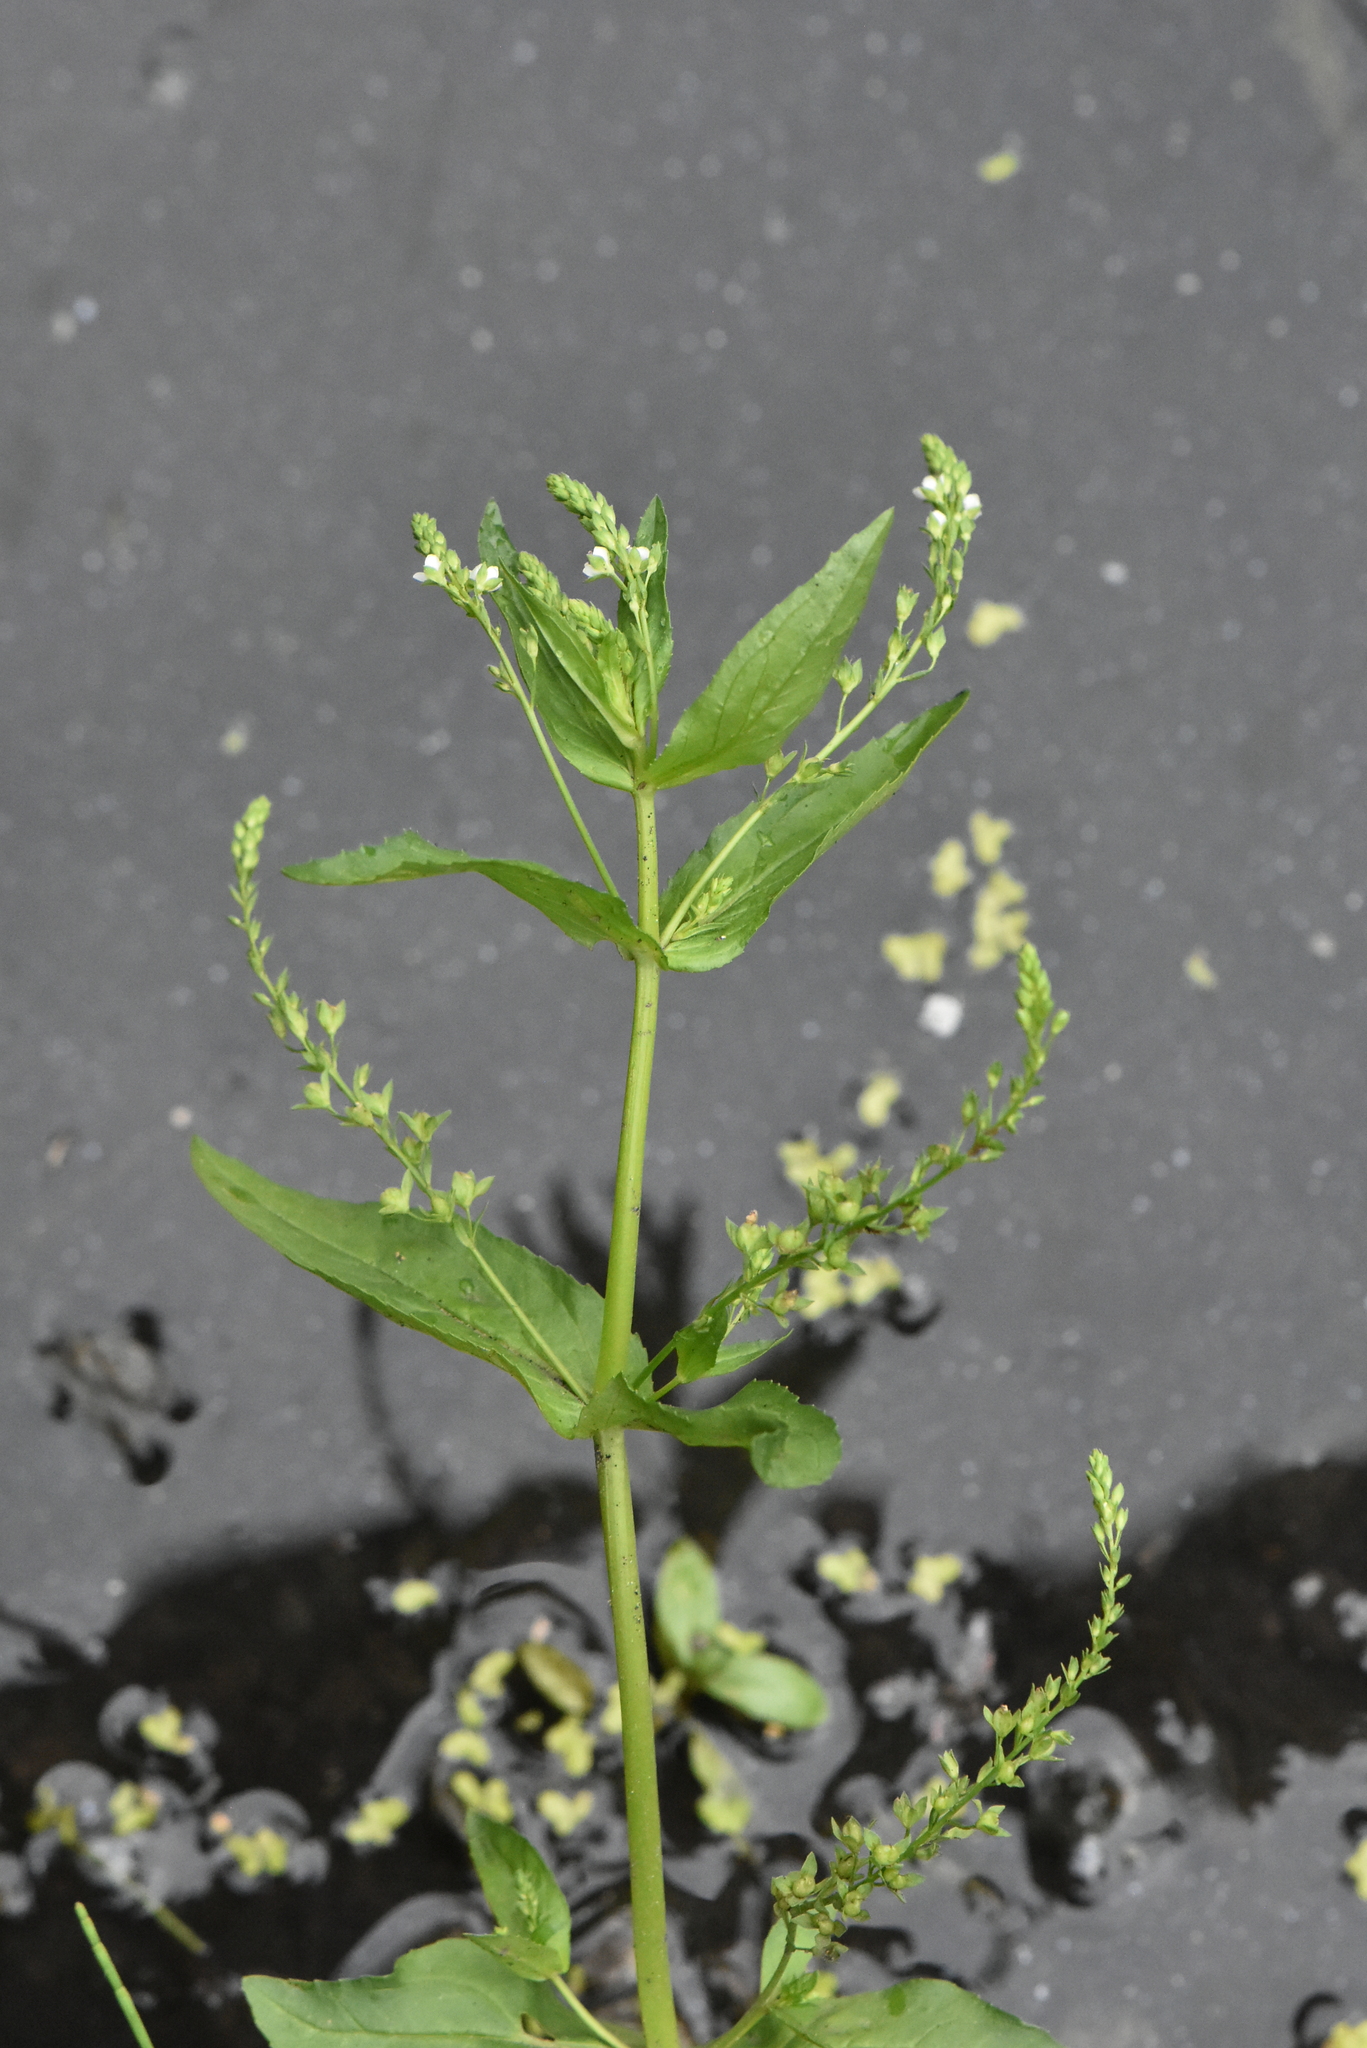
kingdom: Plantae
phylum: Tracheophyta
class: Magnoliopsida
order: Lamiales
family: Plantaginaceae
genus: Veronica
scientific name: Veronica anagallis-aquatica
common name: Water speedwell
